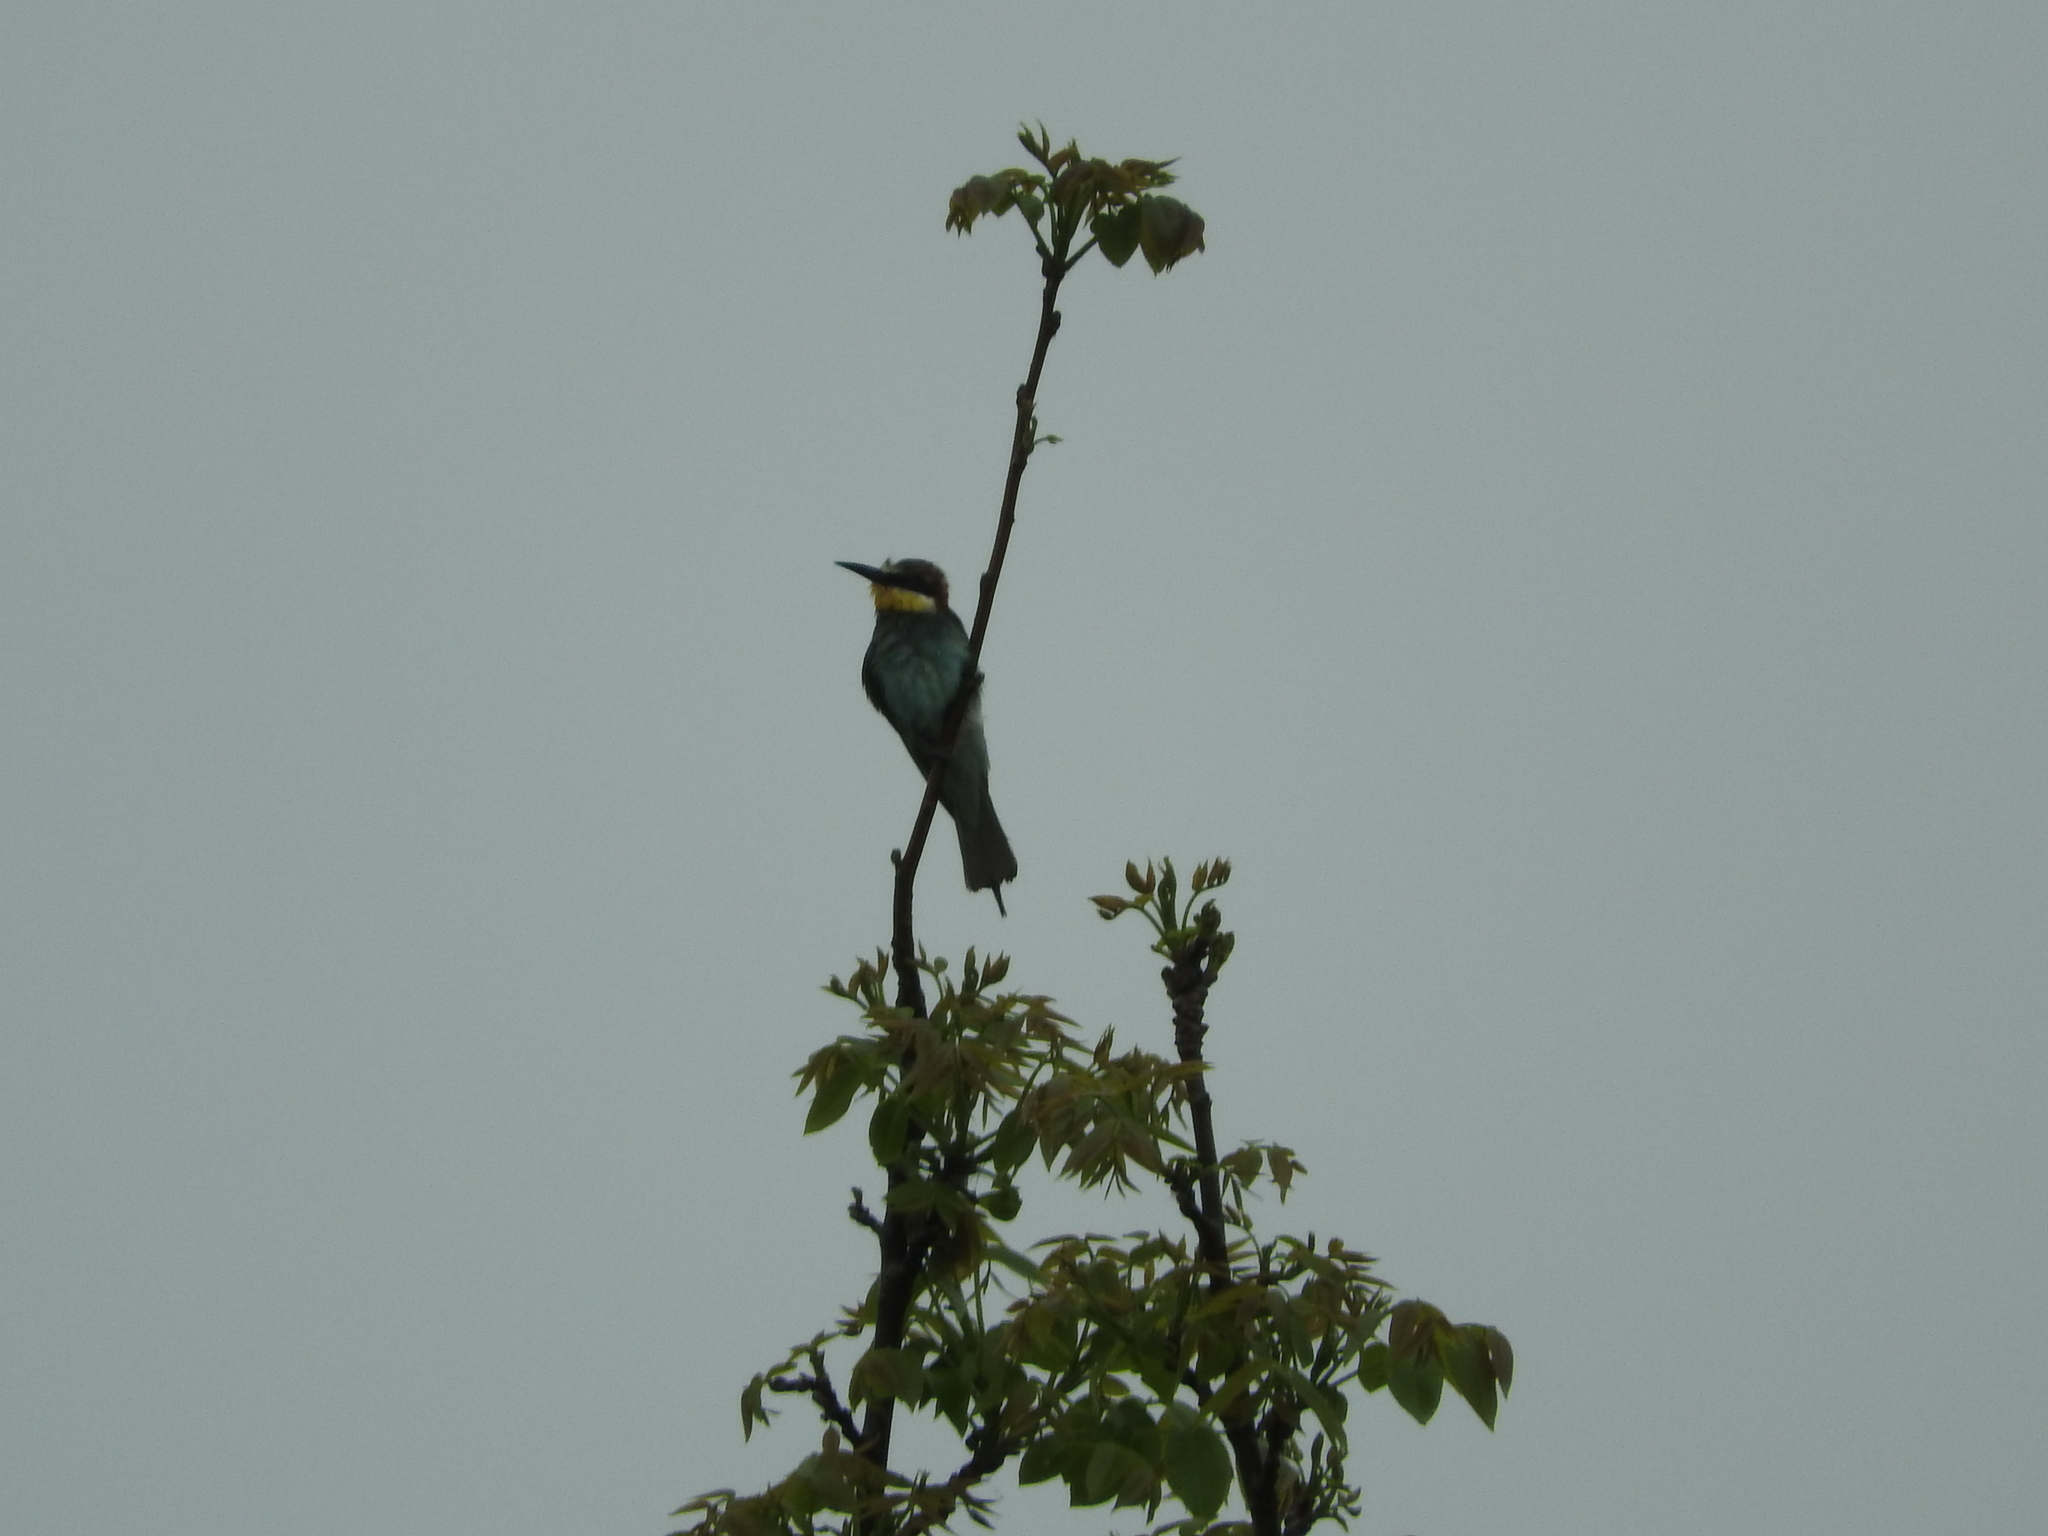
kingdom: Animalia
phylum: Chordata
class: Aves
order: Coraciiformes
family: Meropidae
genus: Merops
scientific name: Merops apiaster
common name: European bee-eater
